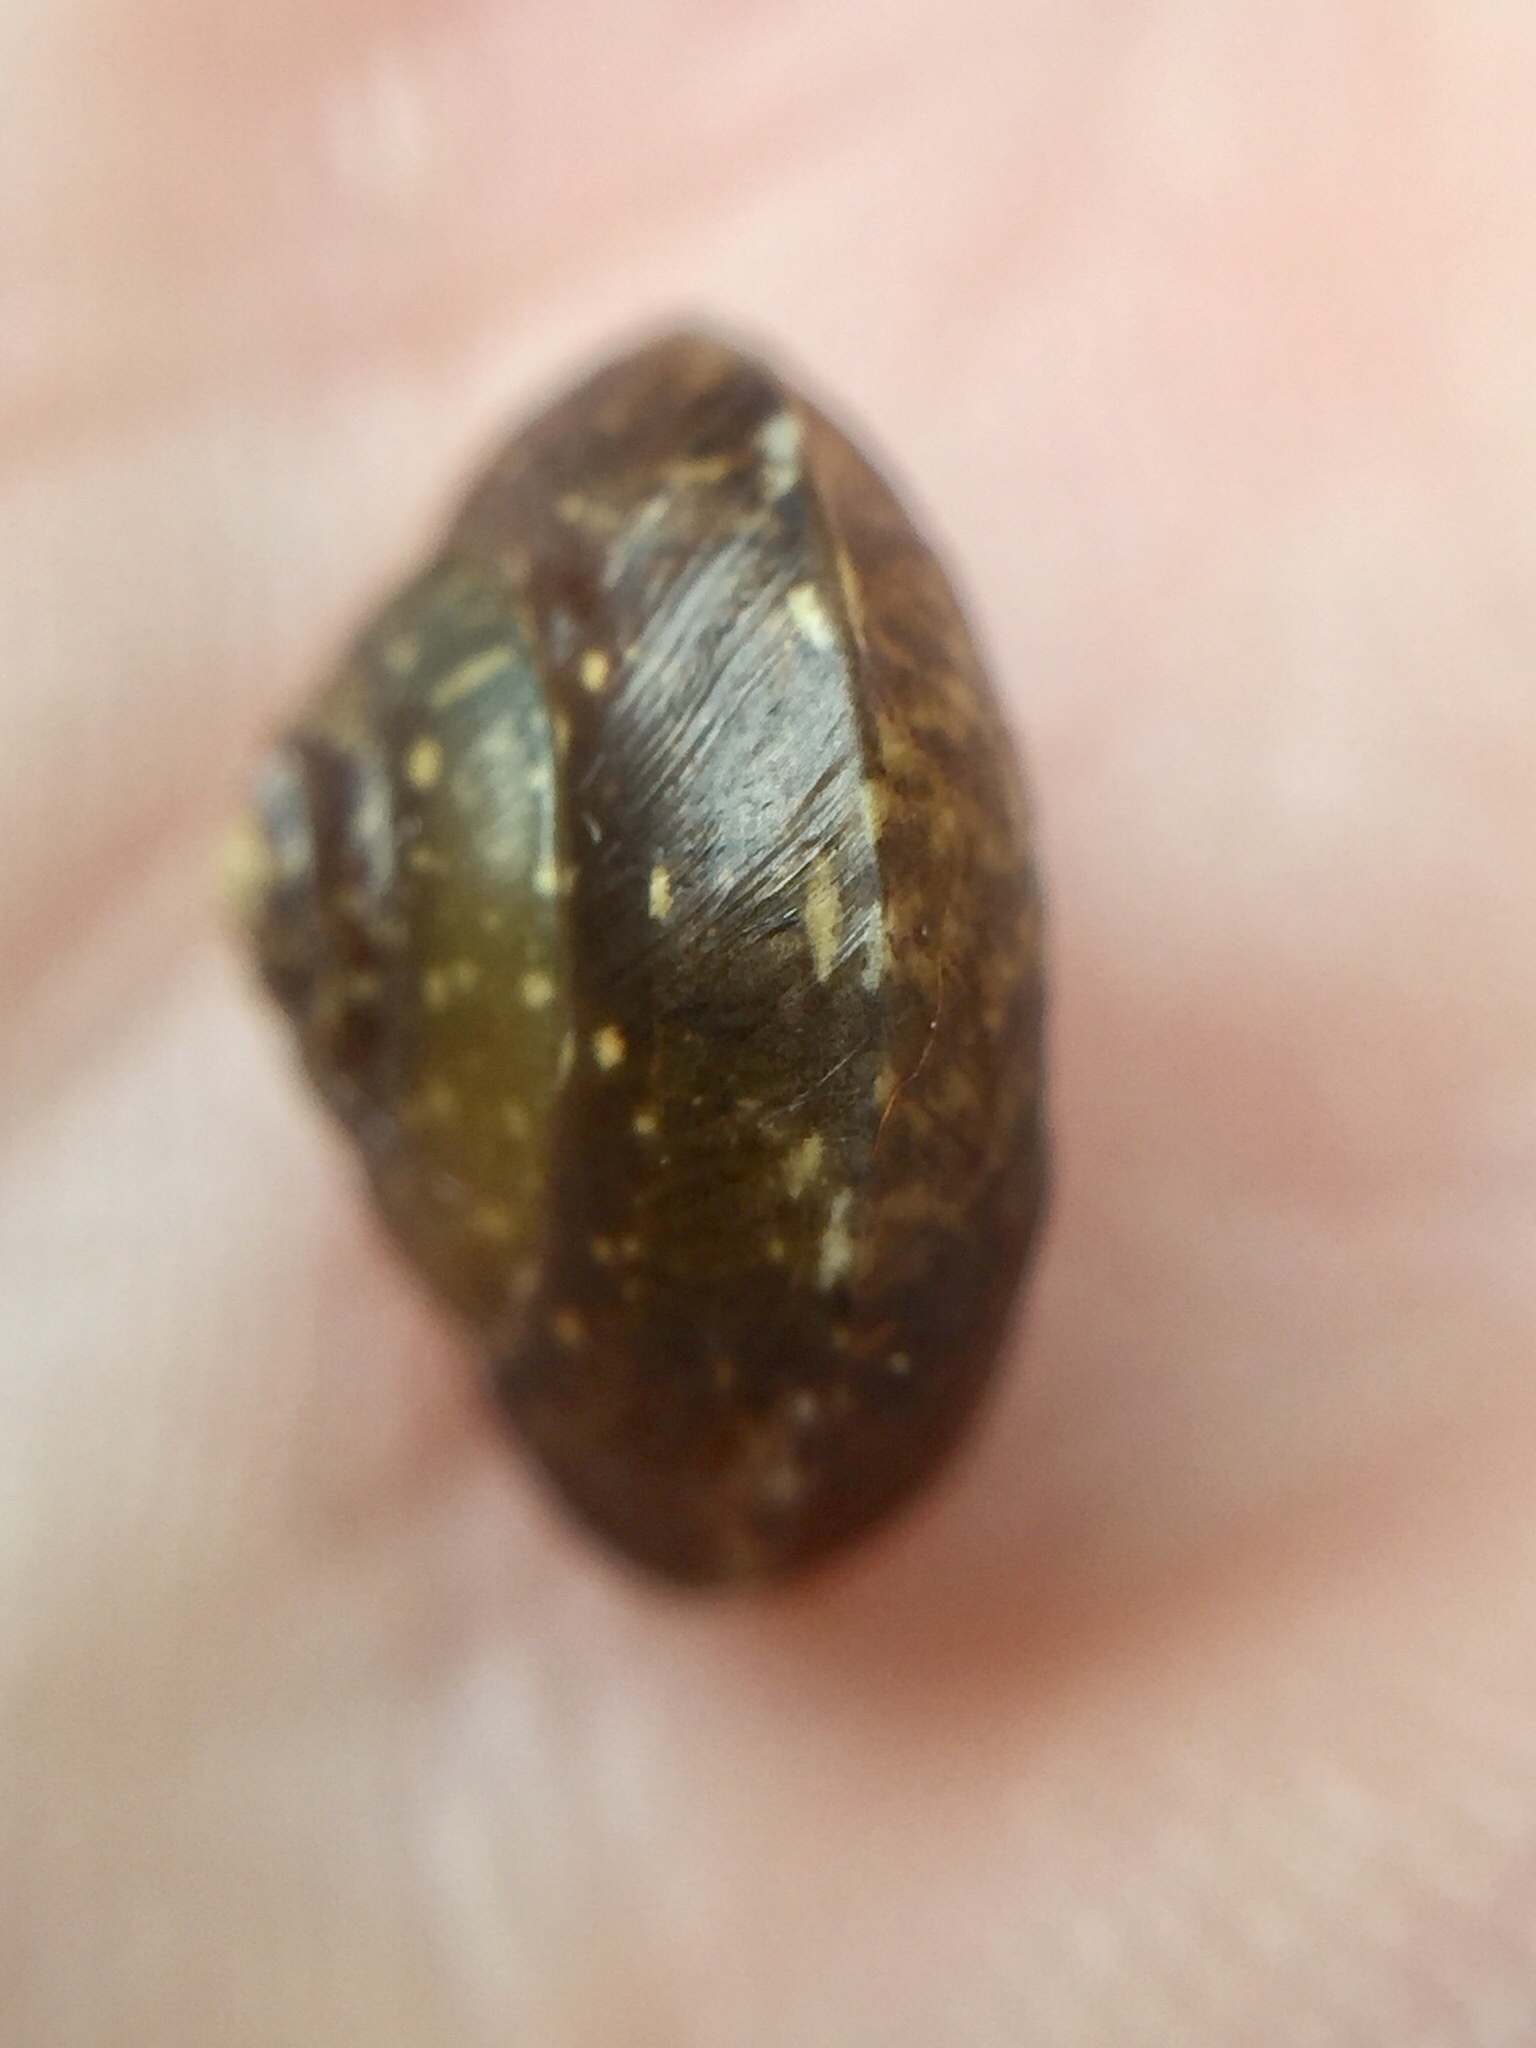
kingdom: Animalia
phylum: Mollusca
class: Gastropoda
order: Stylommatophora
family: Hygromiidae
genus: Hygromia
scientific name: Hygromia cinctella
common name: Girdled snail
